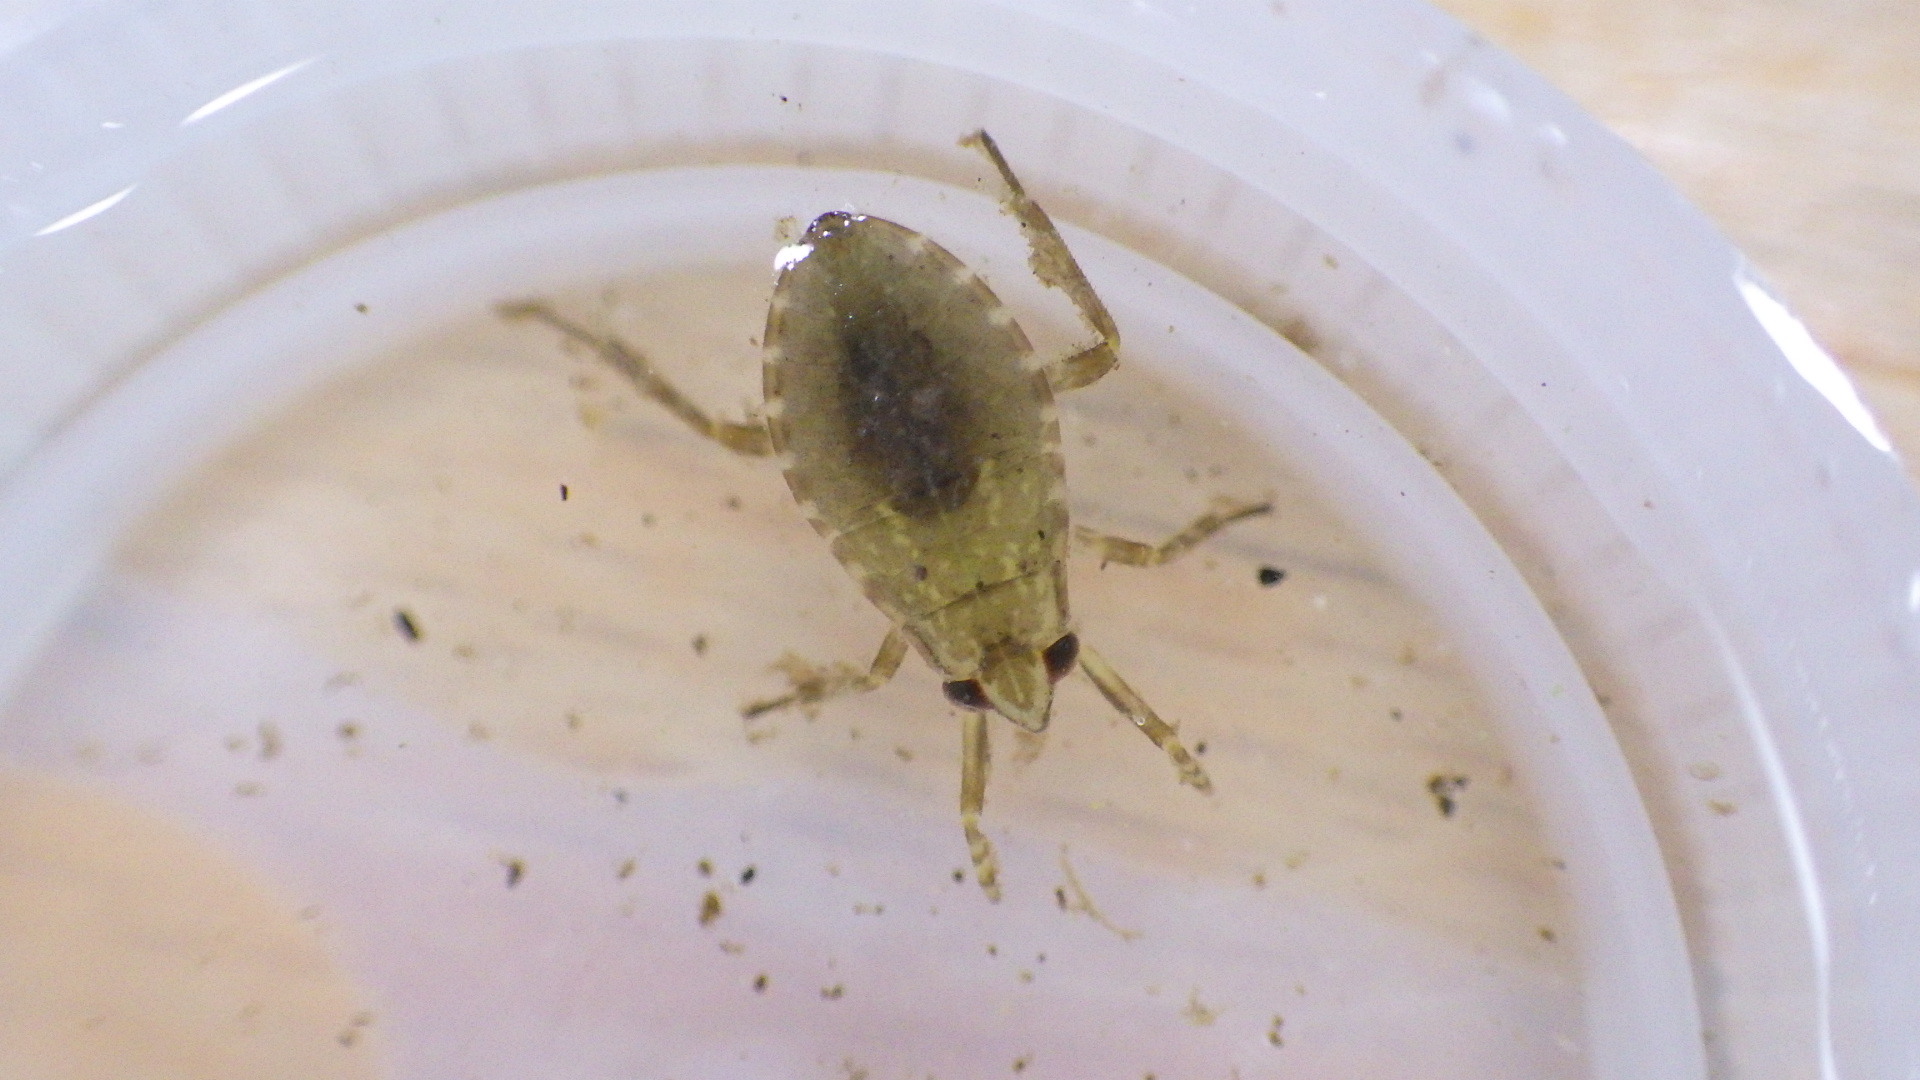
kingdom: Animalia
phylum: Arthropoda
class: Insecta
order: Hemiptera
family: Belostomatidae
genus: Belostoma
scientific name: Belostoma
